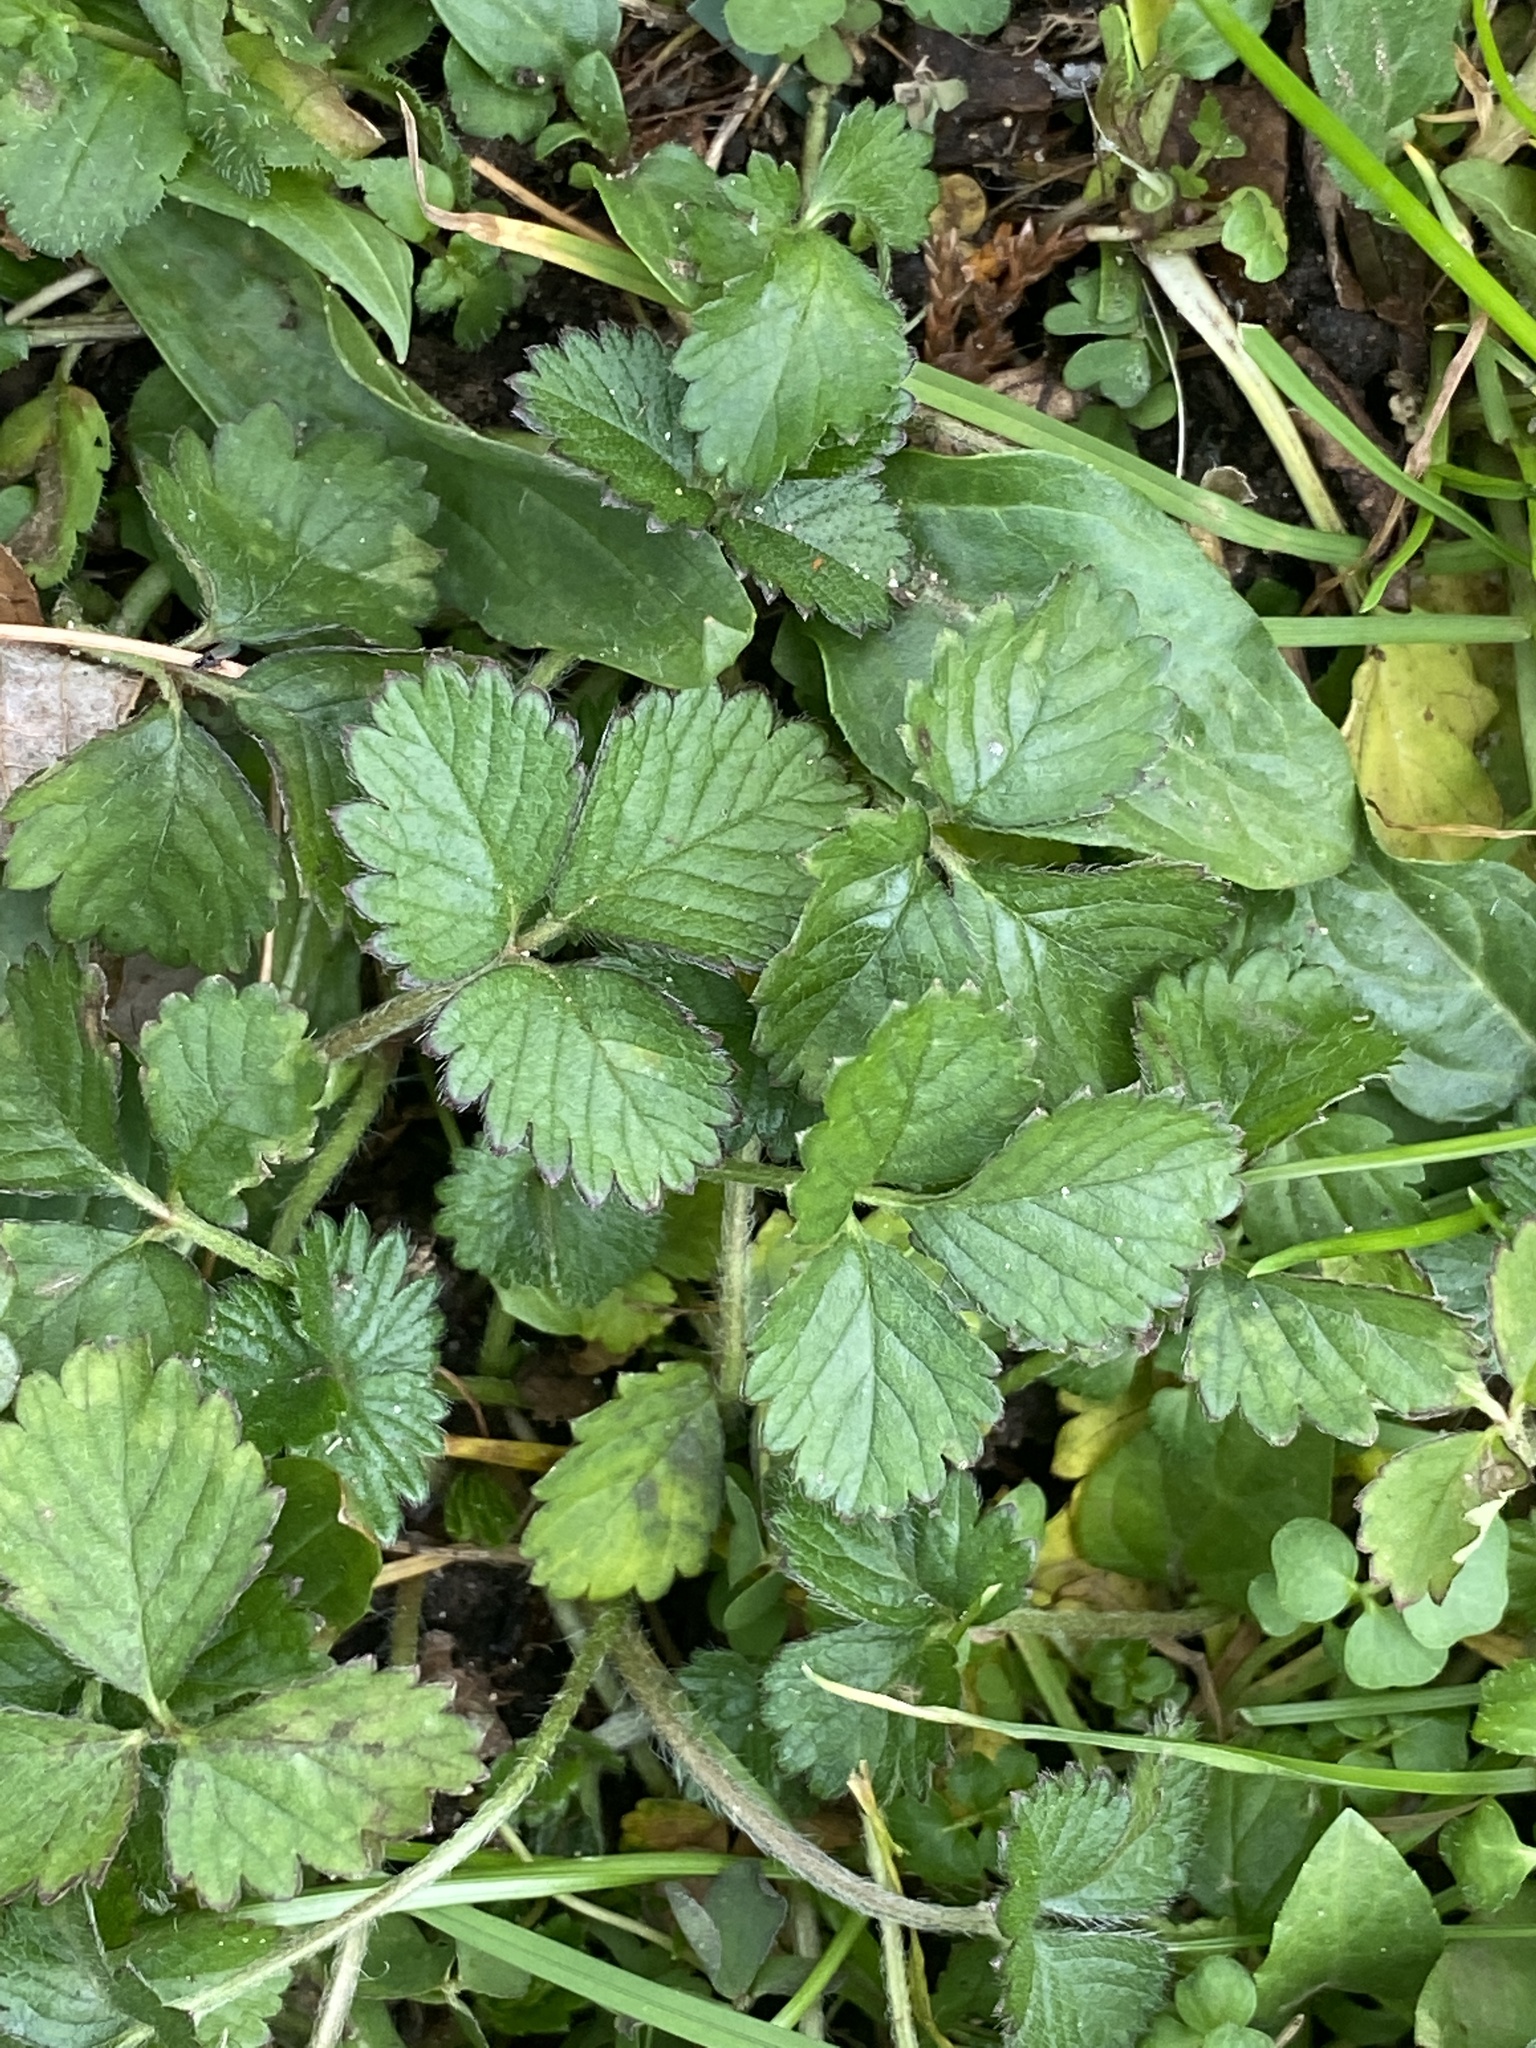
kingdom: Plantae
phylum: Tracheophyta
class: Magnoliopsida
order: Rosales
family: Rosaceae
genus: Potentilla
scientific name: Potentilla indica
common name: Yellow-flowered strawberry
